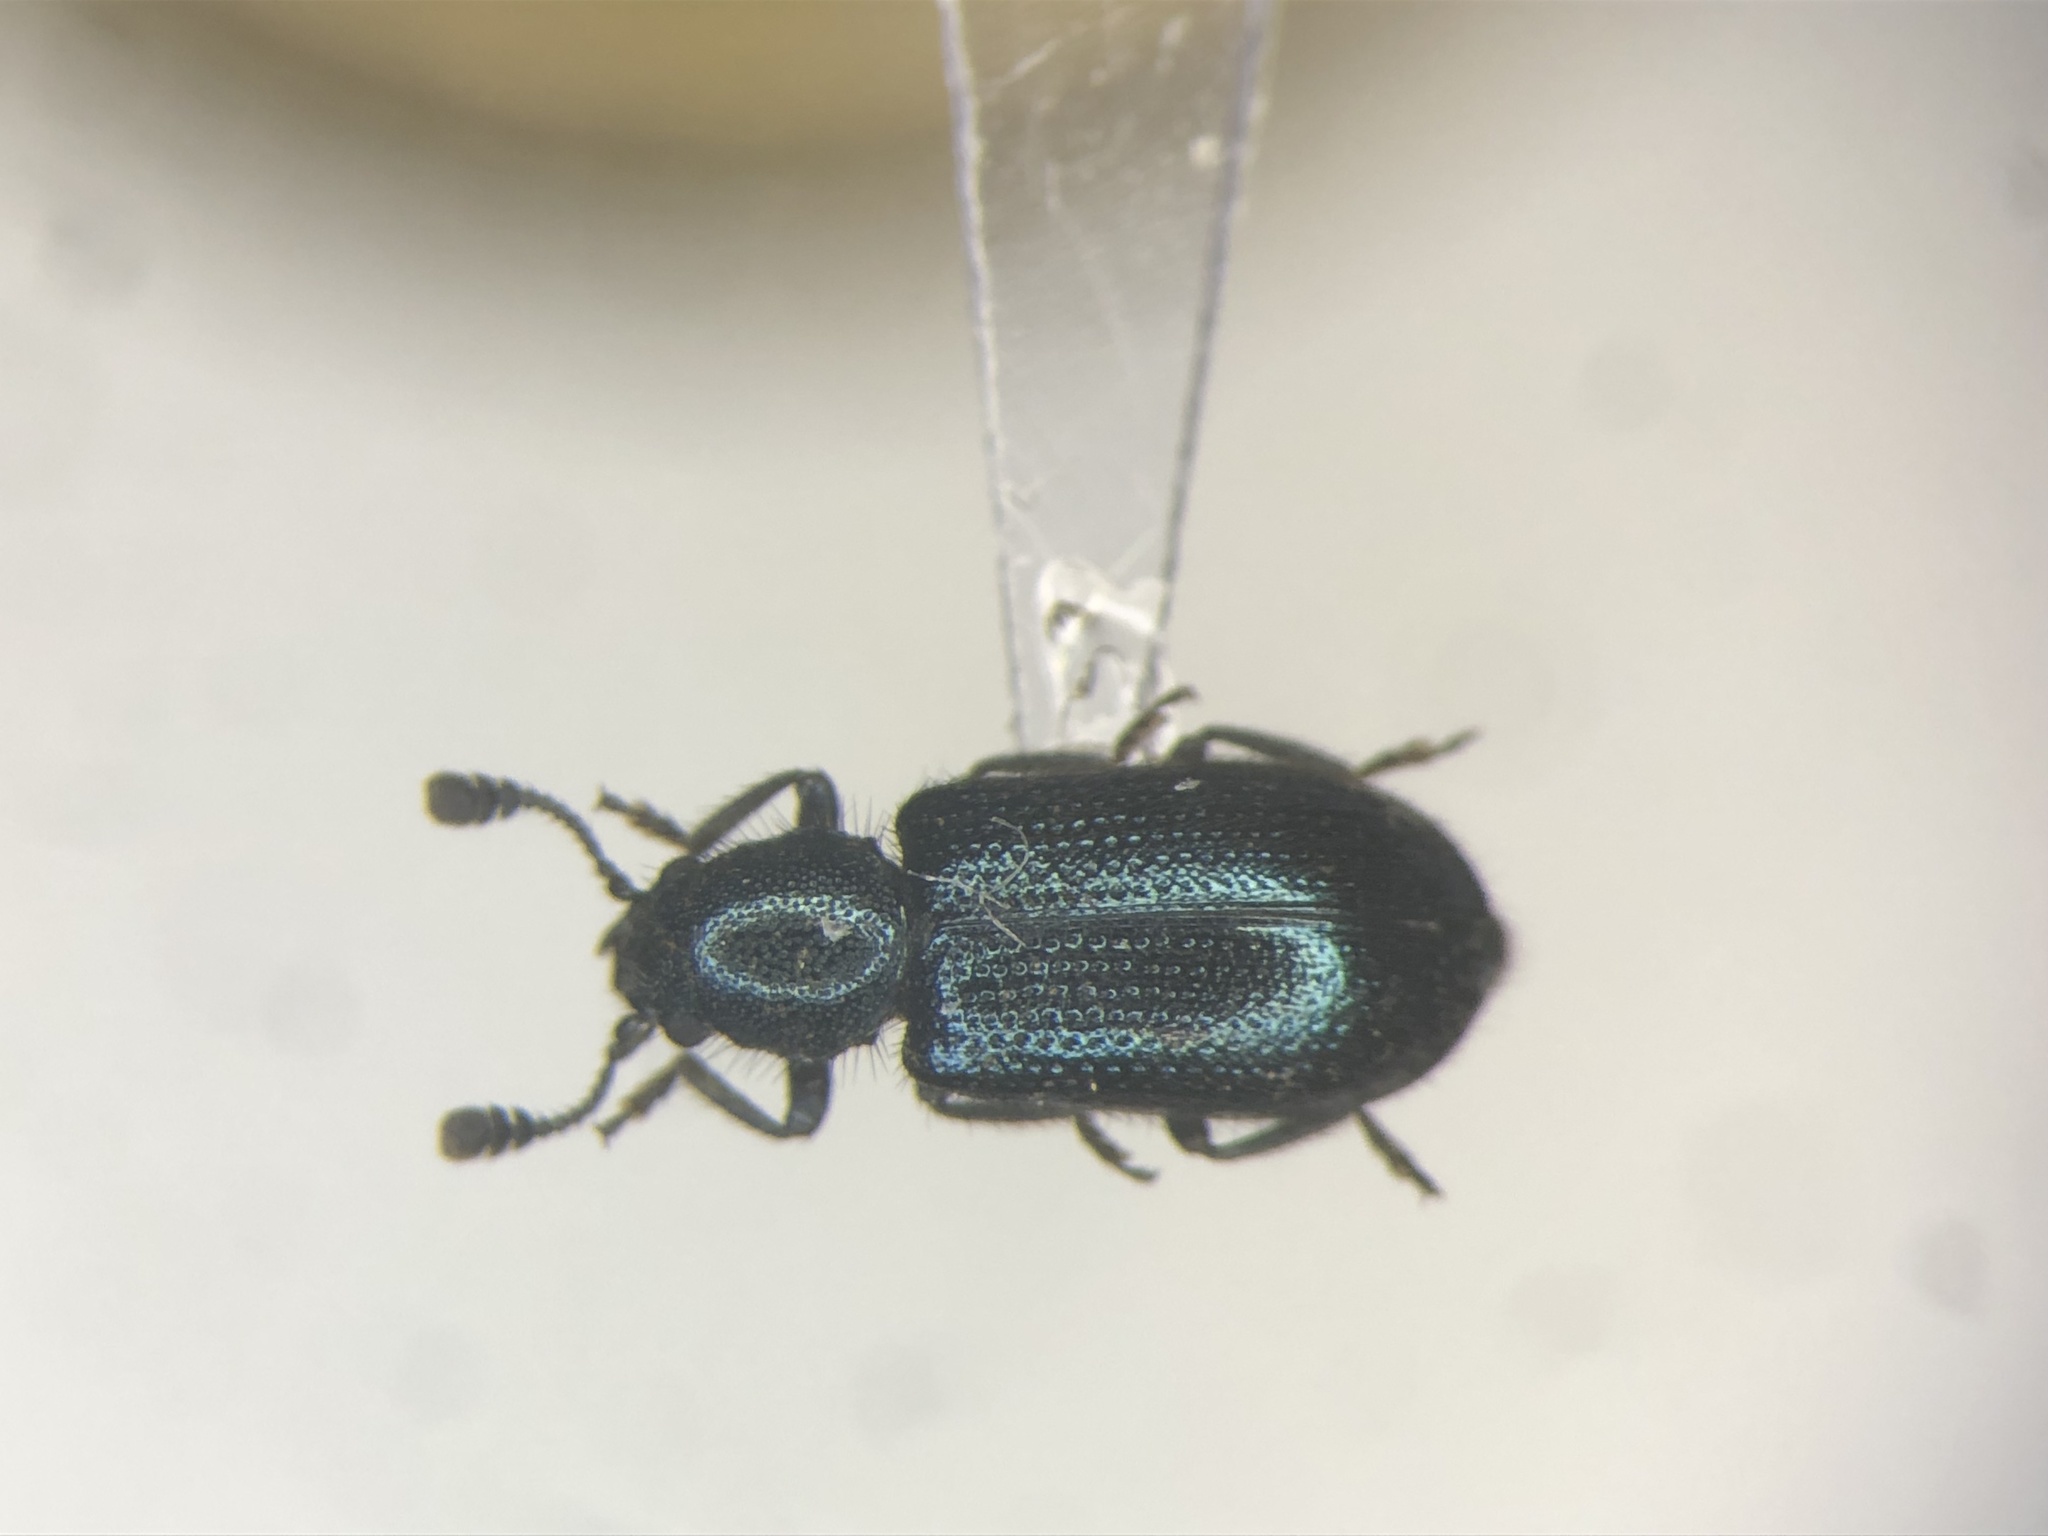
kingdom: Animalia
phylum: Arthropoda
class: Insecta
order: Coleoptera
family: Cleridae
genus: Necrobia
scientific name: Necrobia violacea
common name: Violet checkered beetle
